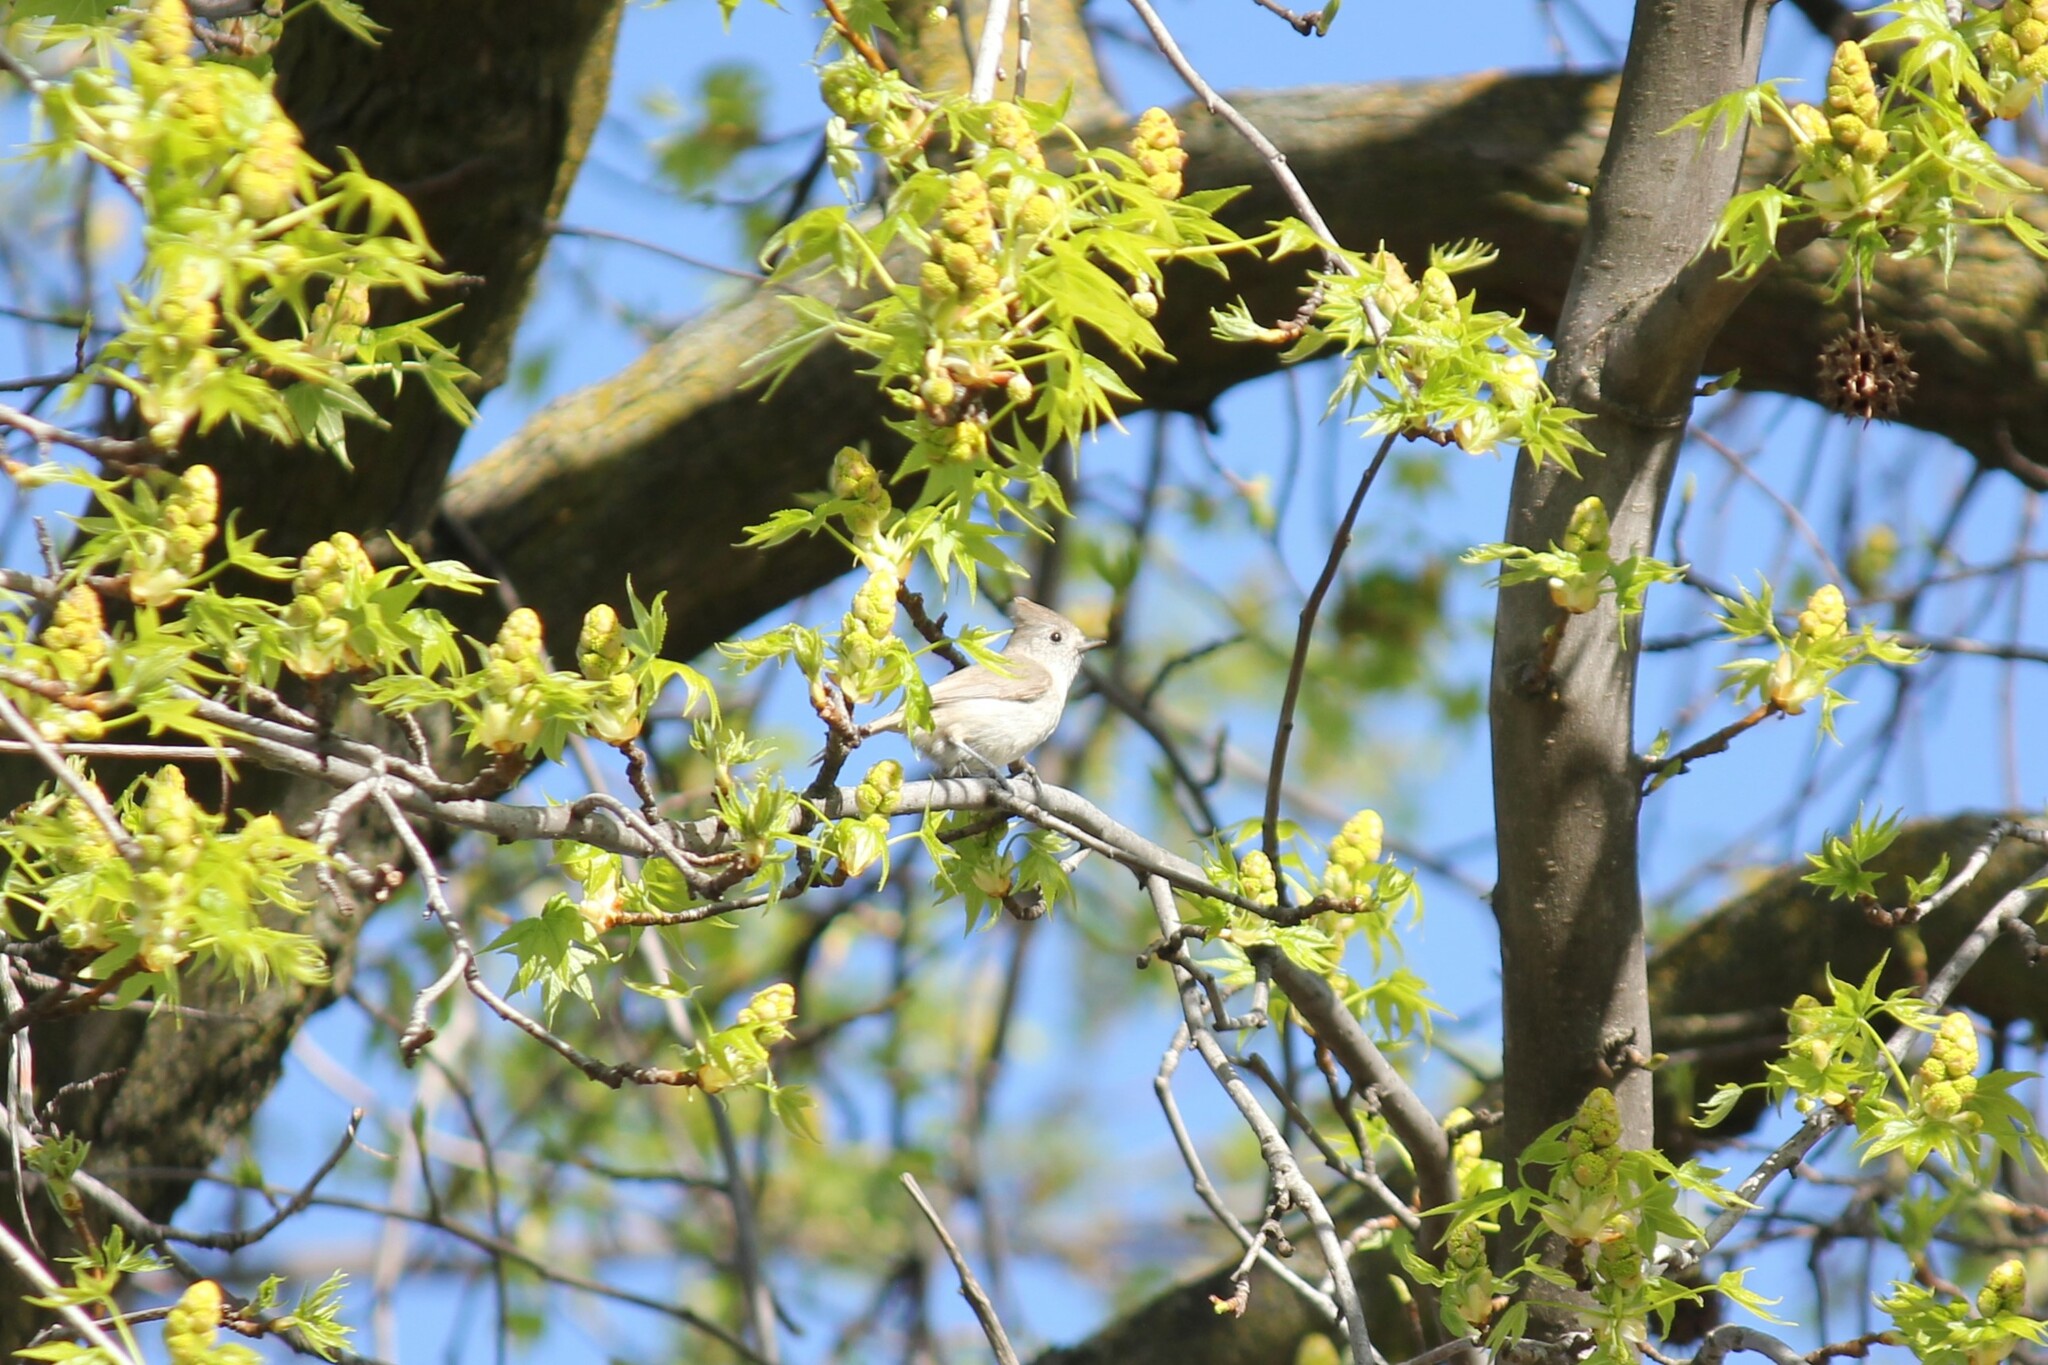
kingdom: Animalia
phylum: Chordata
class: Aves
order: Passeriformes
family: Paridae
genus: Baeolophus
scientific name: Baeolophus inornatus
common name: Oak titmouse
